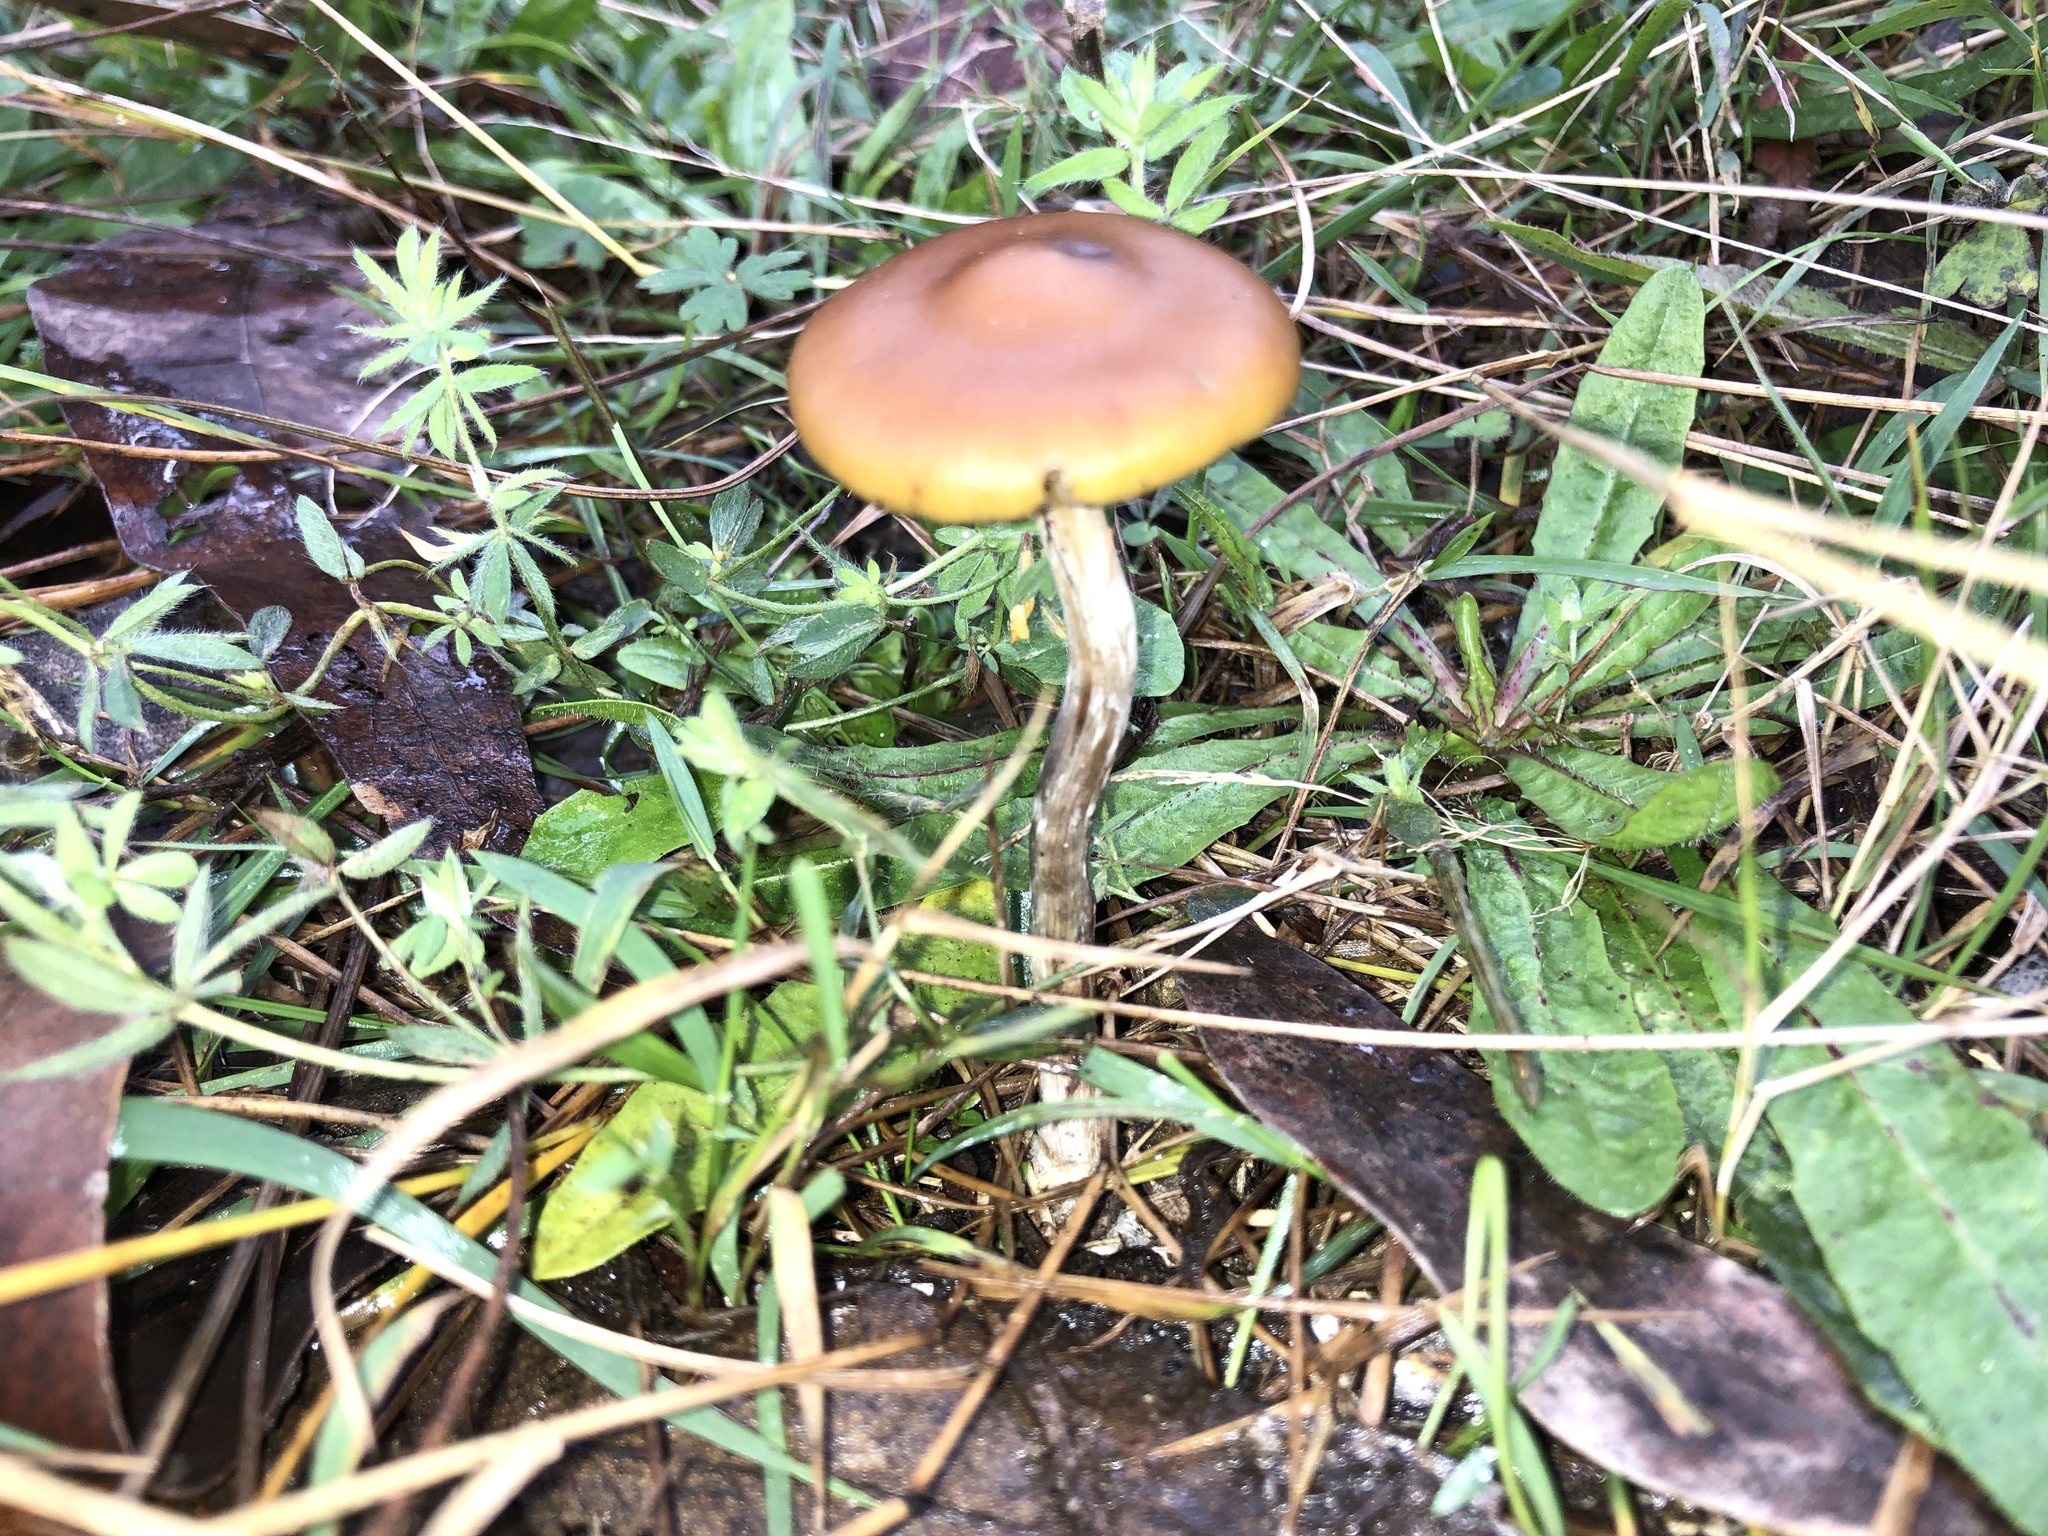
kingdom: Fungi
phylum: Basidiomycota
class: Agaricomycetes
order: Agaricales
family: Hymenogastraceae
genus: Psilocybe
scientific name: Psilocybe subaeruginosa
